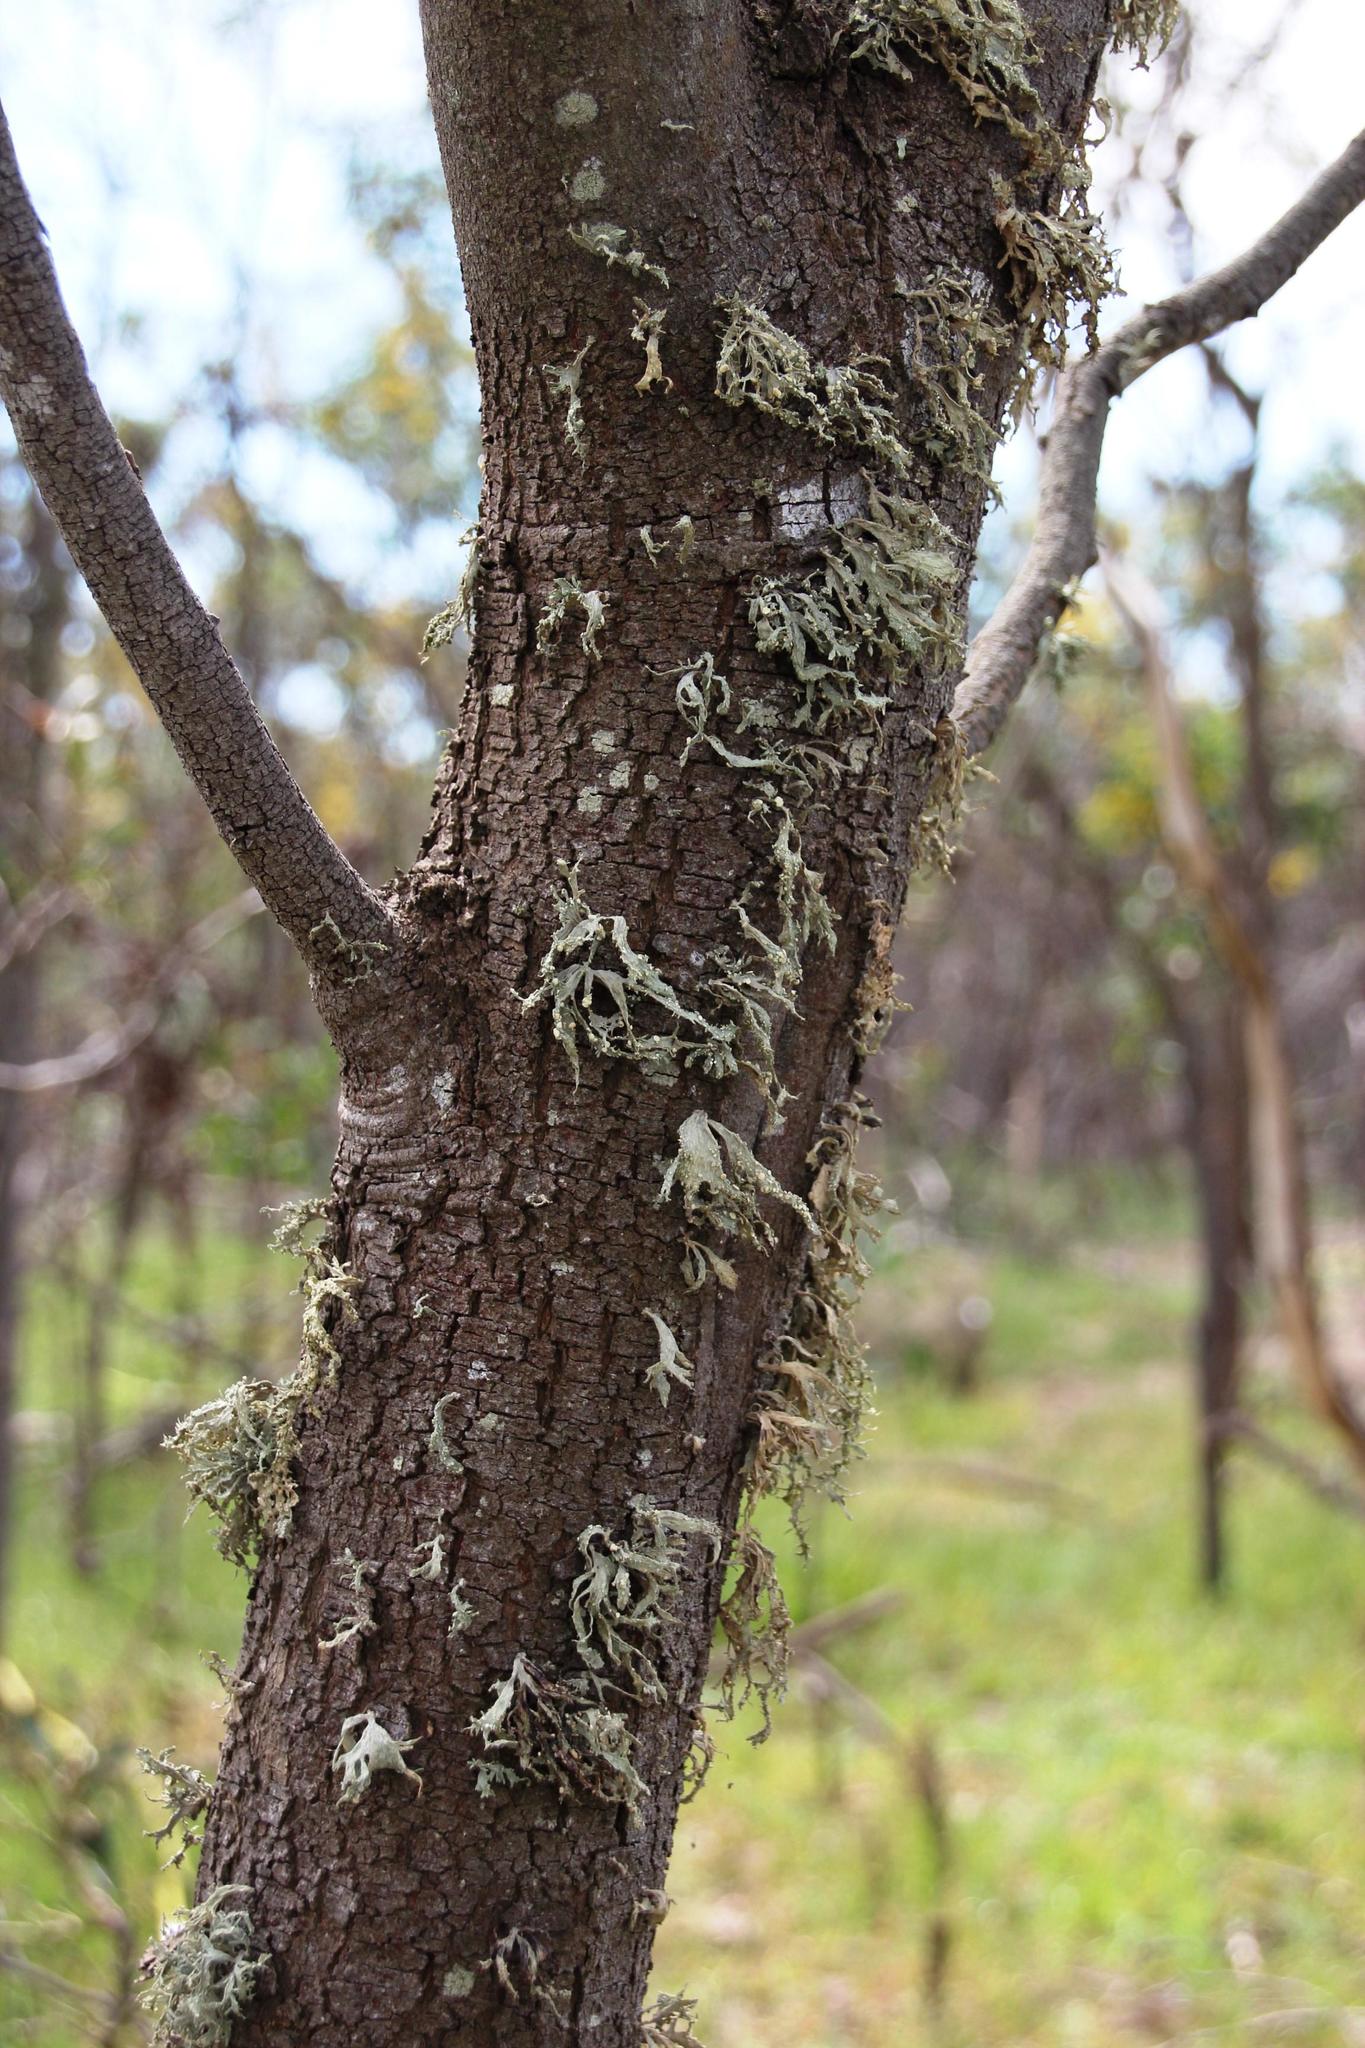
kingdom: Fungi
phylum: Ascomycota
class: Lecanoromycetes
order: Lecanorales
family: Ramalinaceae
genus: Ramalina
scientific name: Ramalina celastri
